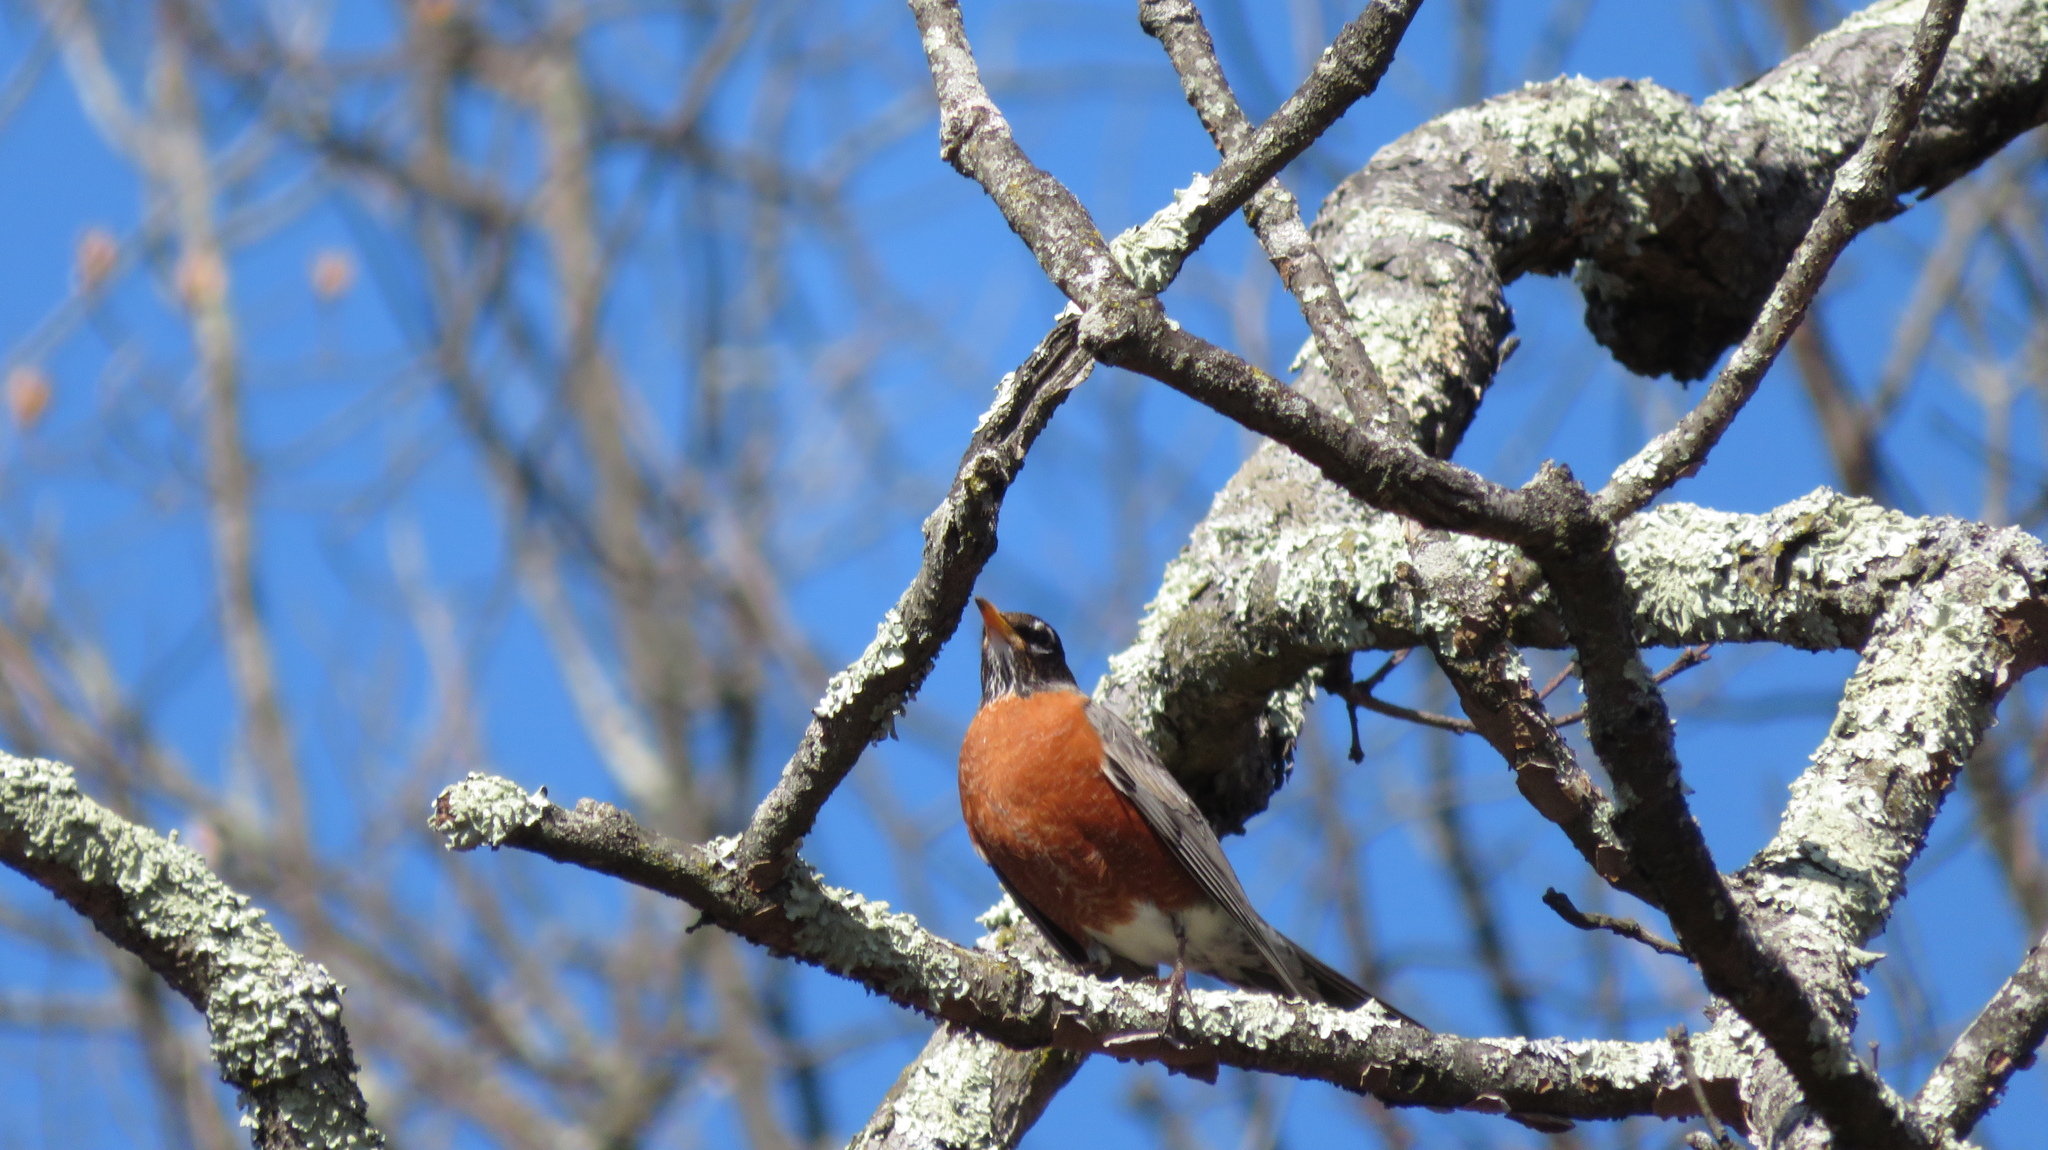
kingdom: Animalia
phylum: Chordata
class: Aves
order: Passeriformes
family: Turdidae
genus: Turdus
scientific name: Turdus migratorius
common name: American robin
